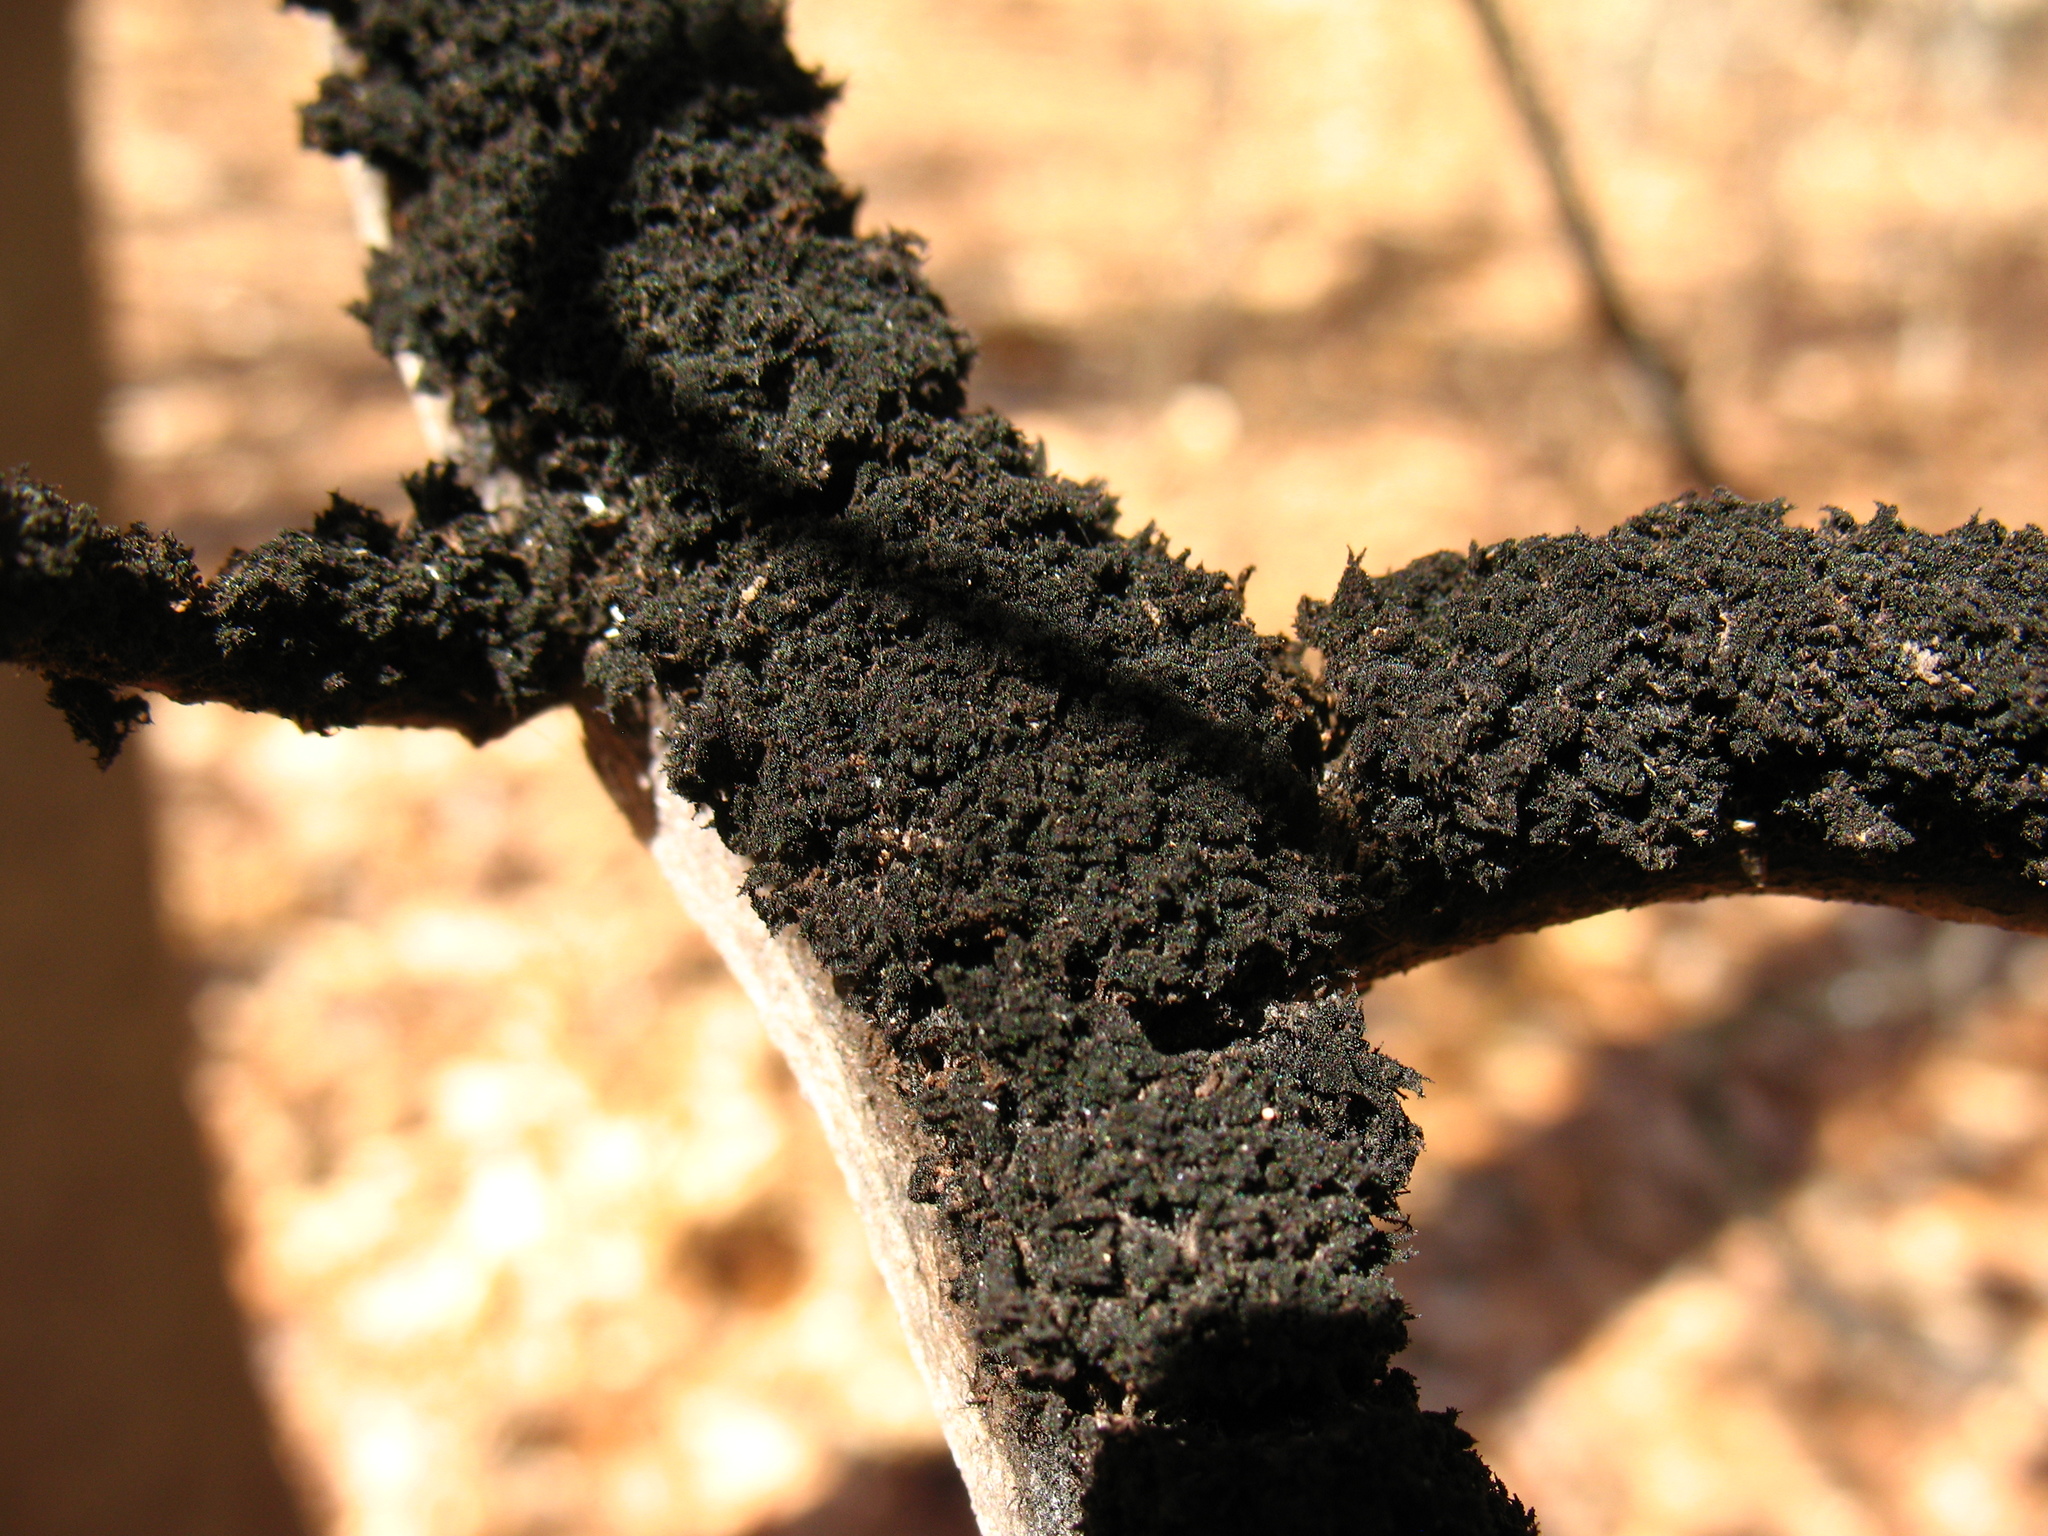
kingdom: Fungi
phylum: Ascomycota
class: Dothideomycetes
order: Capnodiales
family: Capnodiaceae
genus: Scorias
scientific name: Scorias spongiosa
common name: Black sooty mold
